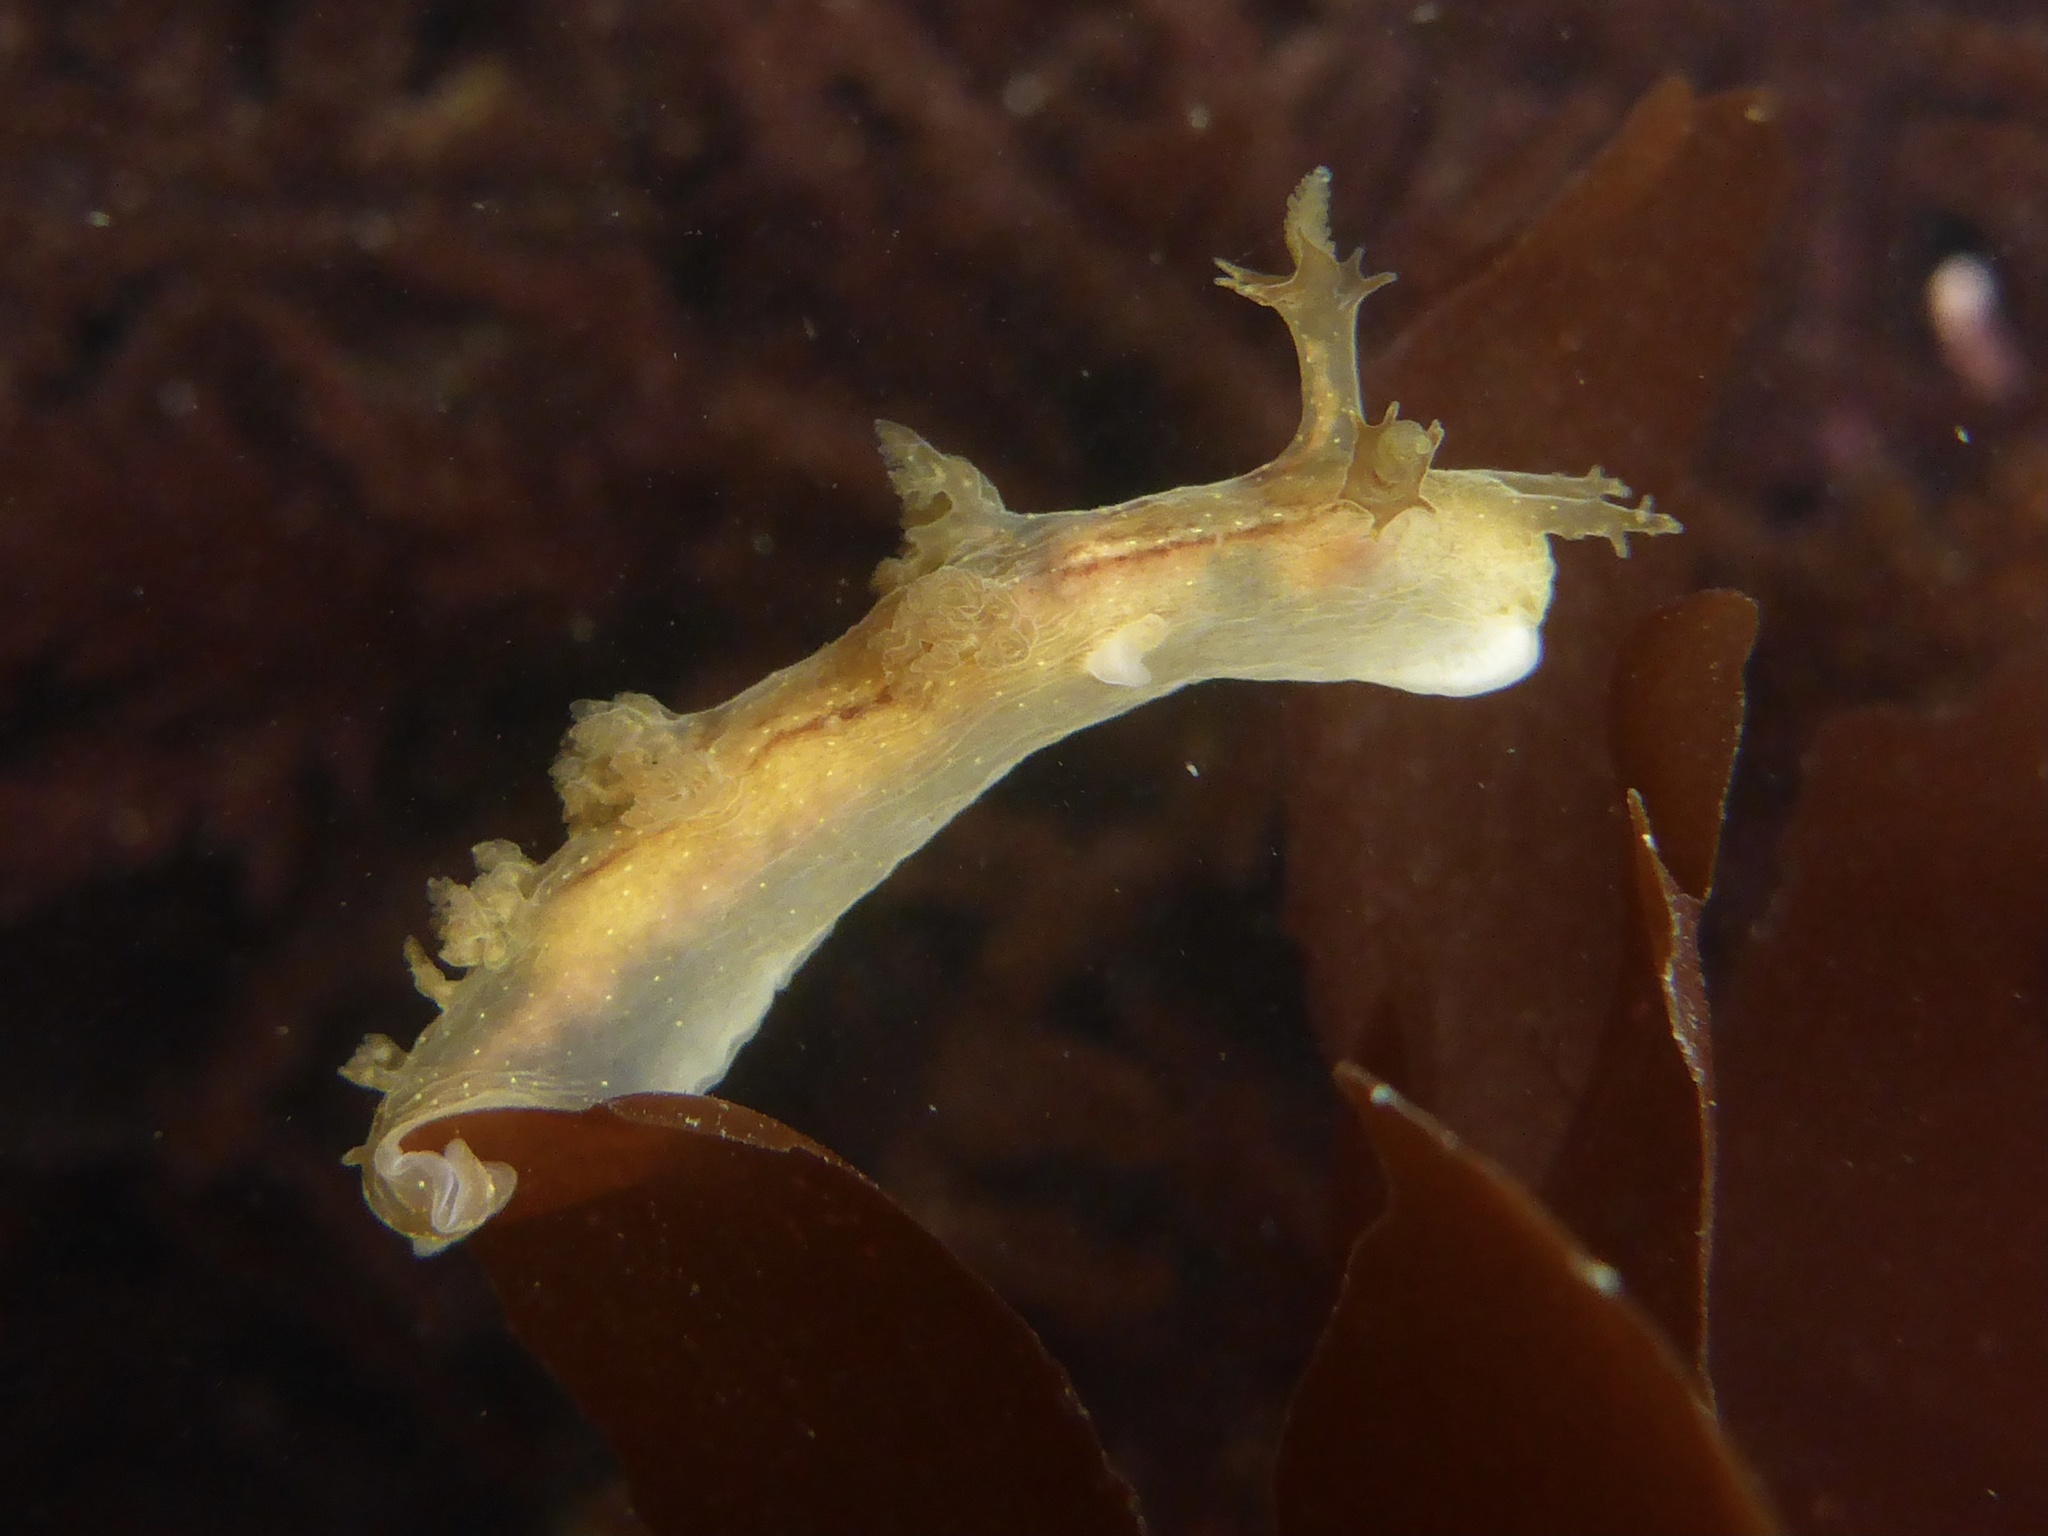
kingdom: Animalia
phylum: Mollusca
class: Gastropoda
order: Nudibranchia
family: Dendronotidae
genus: Dendronotus
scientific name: Dendronotus subramosus
